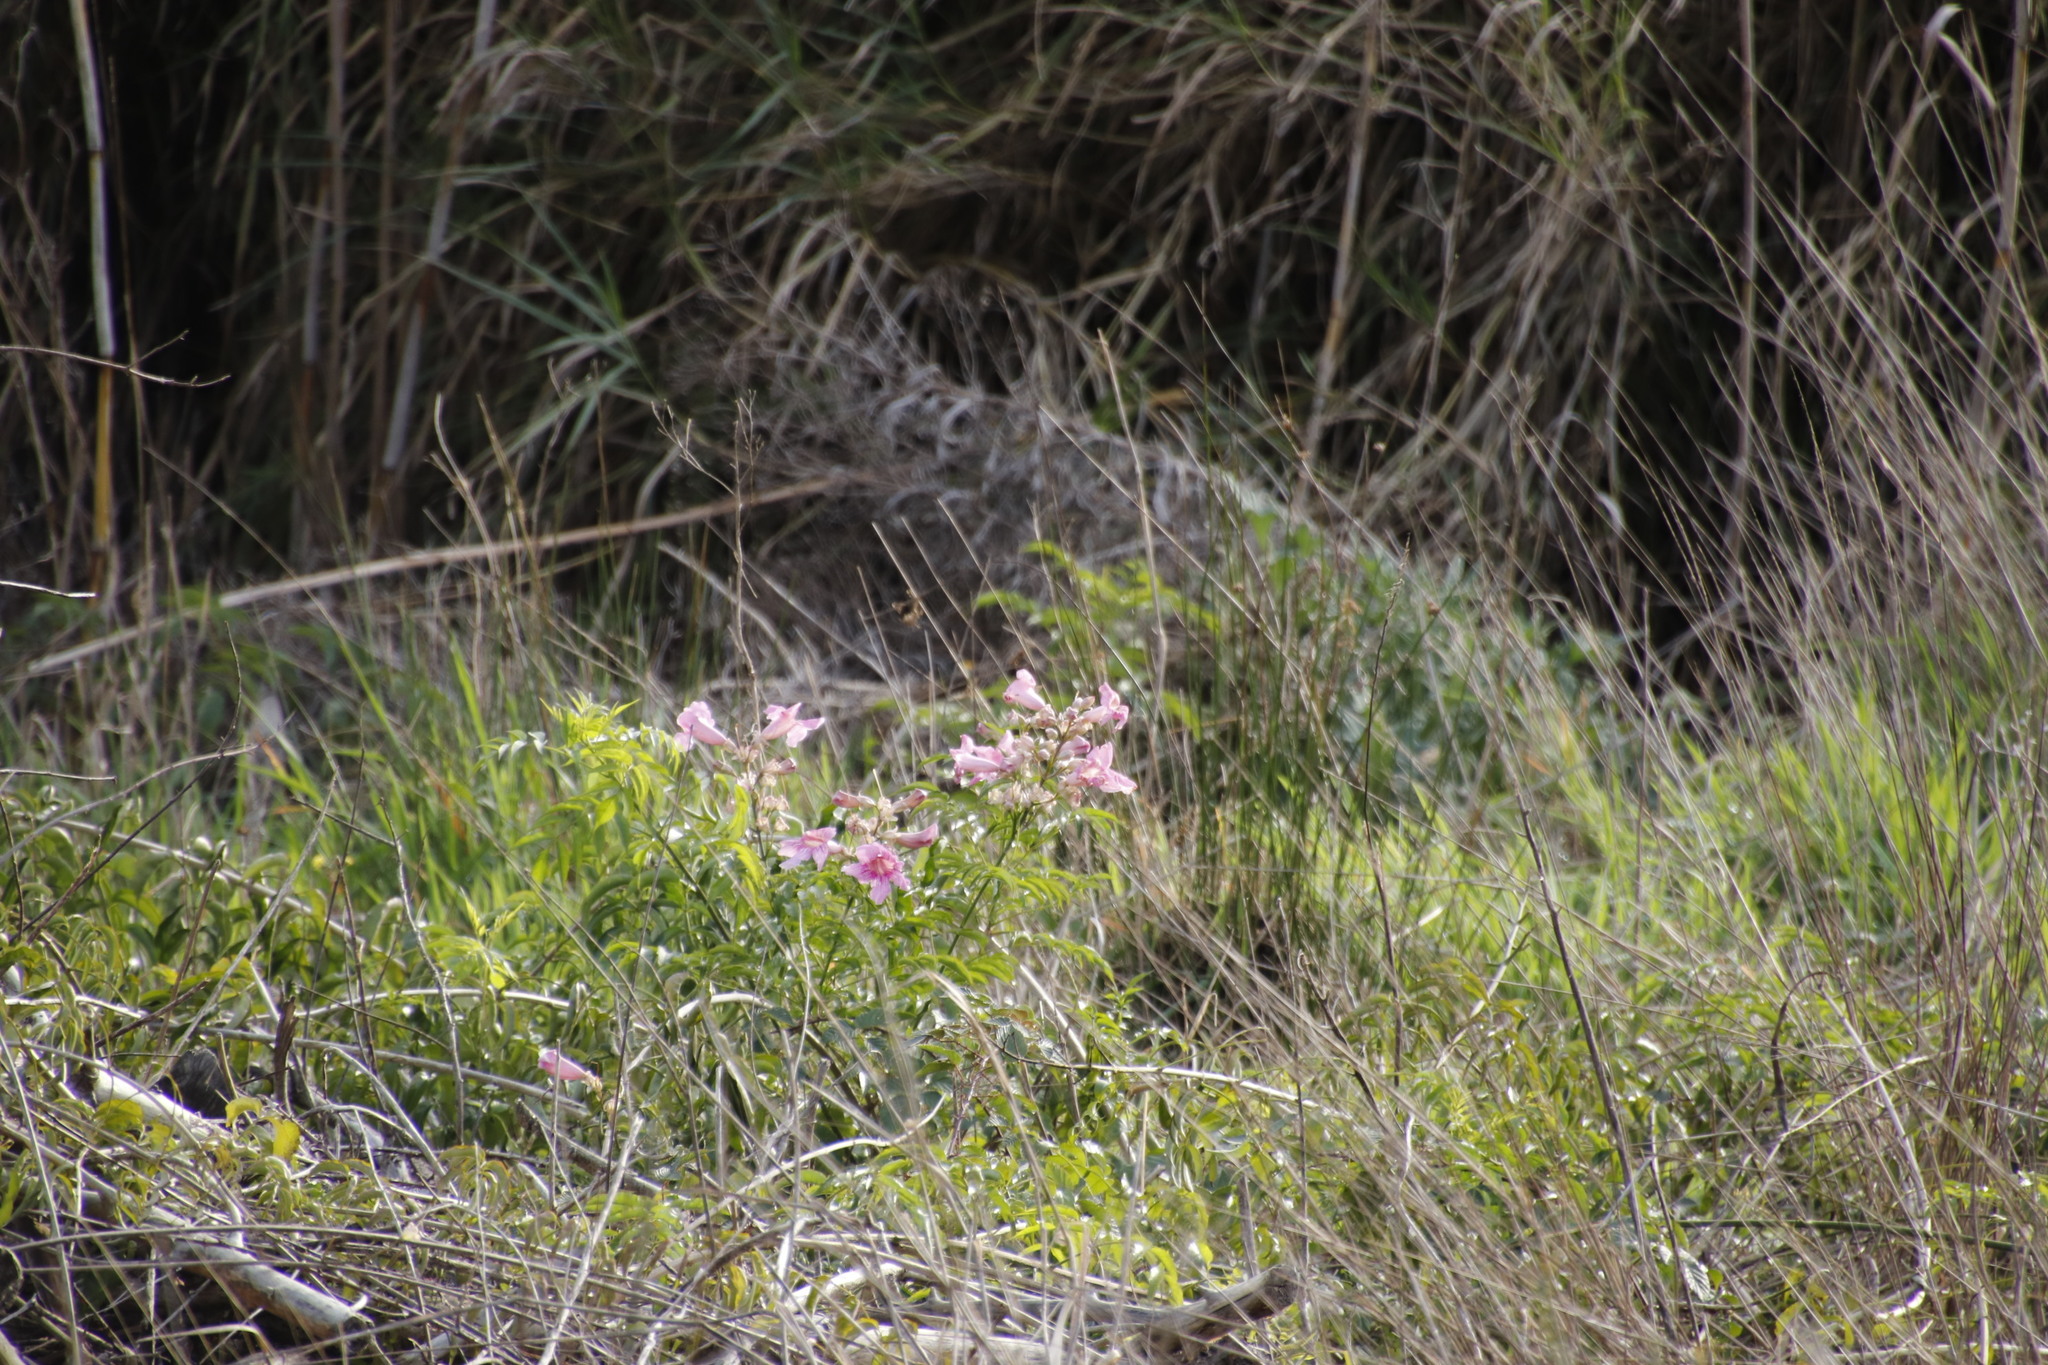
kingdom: Plantae
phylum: Tracheophyta
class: Magnoliopsida
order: Lamiales
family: Bignoniaceae
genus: Podranea
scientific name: Podranea ricasoliana
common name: Zimbabwe creeper
